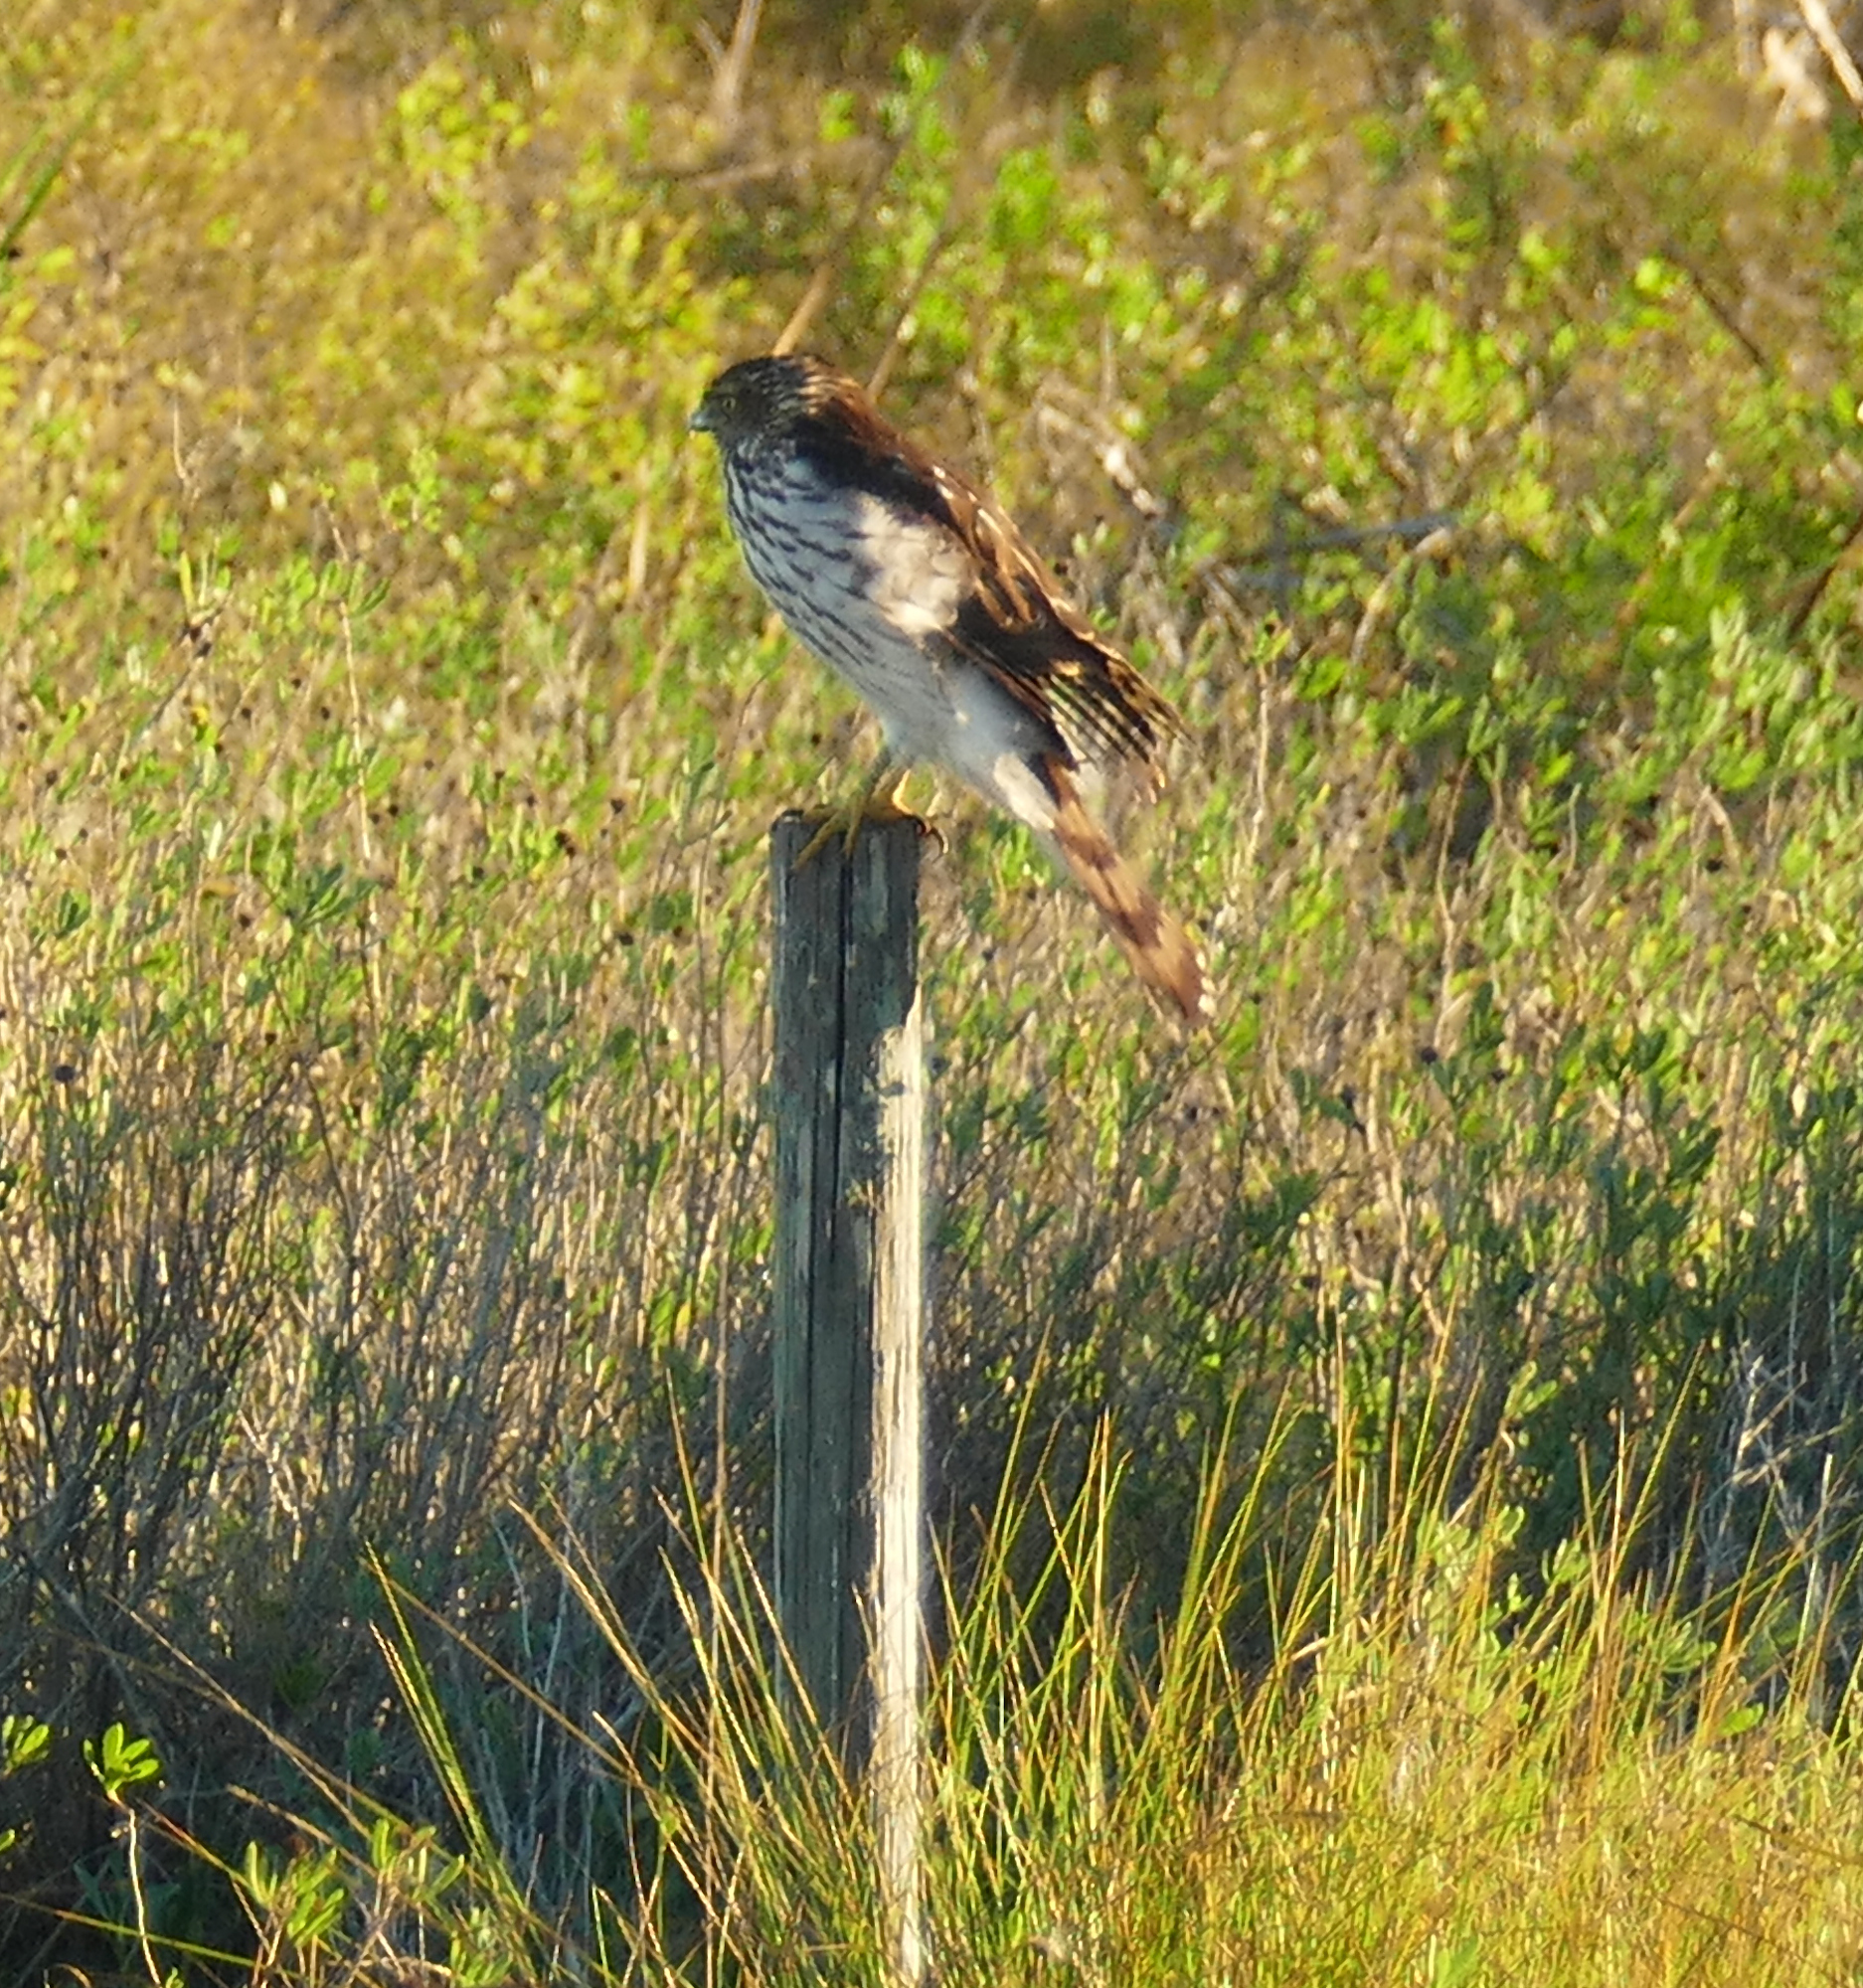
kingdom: Animalia
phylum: Chordata
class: Aves
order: Accipitriformes
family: Accipitridae
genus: Accipiter
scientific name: Accipiter cooperii
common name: Cooper's hawk
